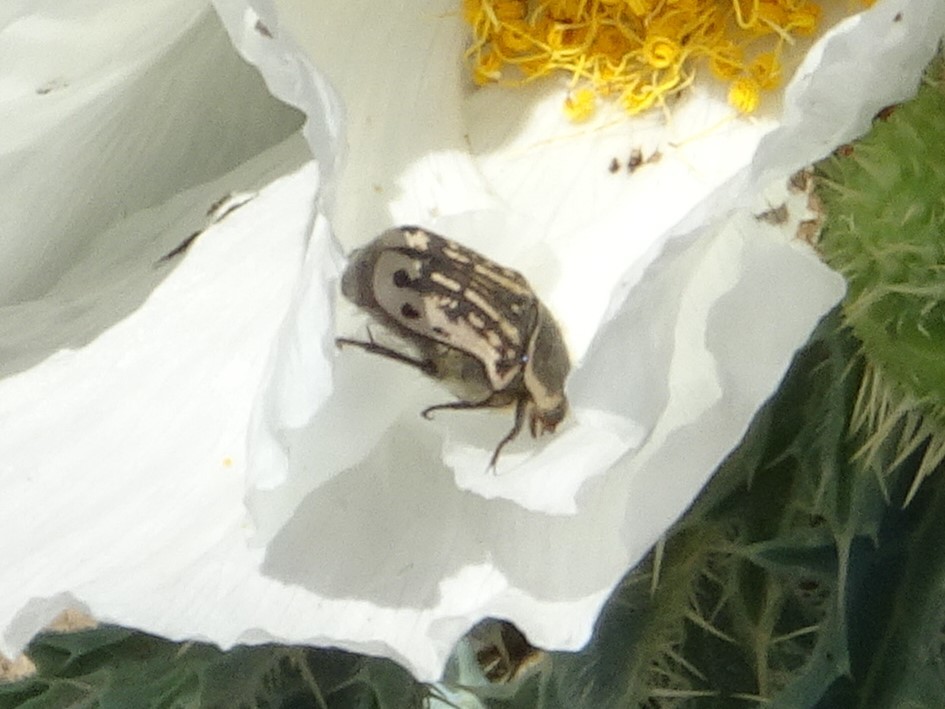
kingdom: Animalia
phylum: Arthropoda
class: Insecta
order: Coleoptera
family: Scarabaeidae
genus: Euphoria
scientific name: Euphoria kernii
